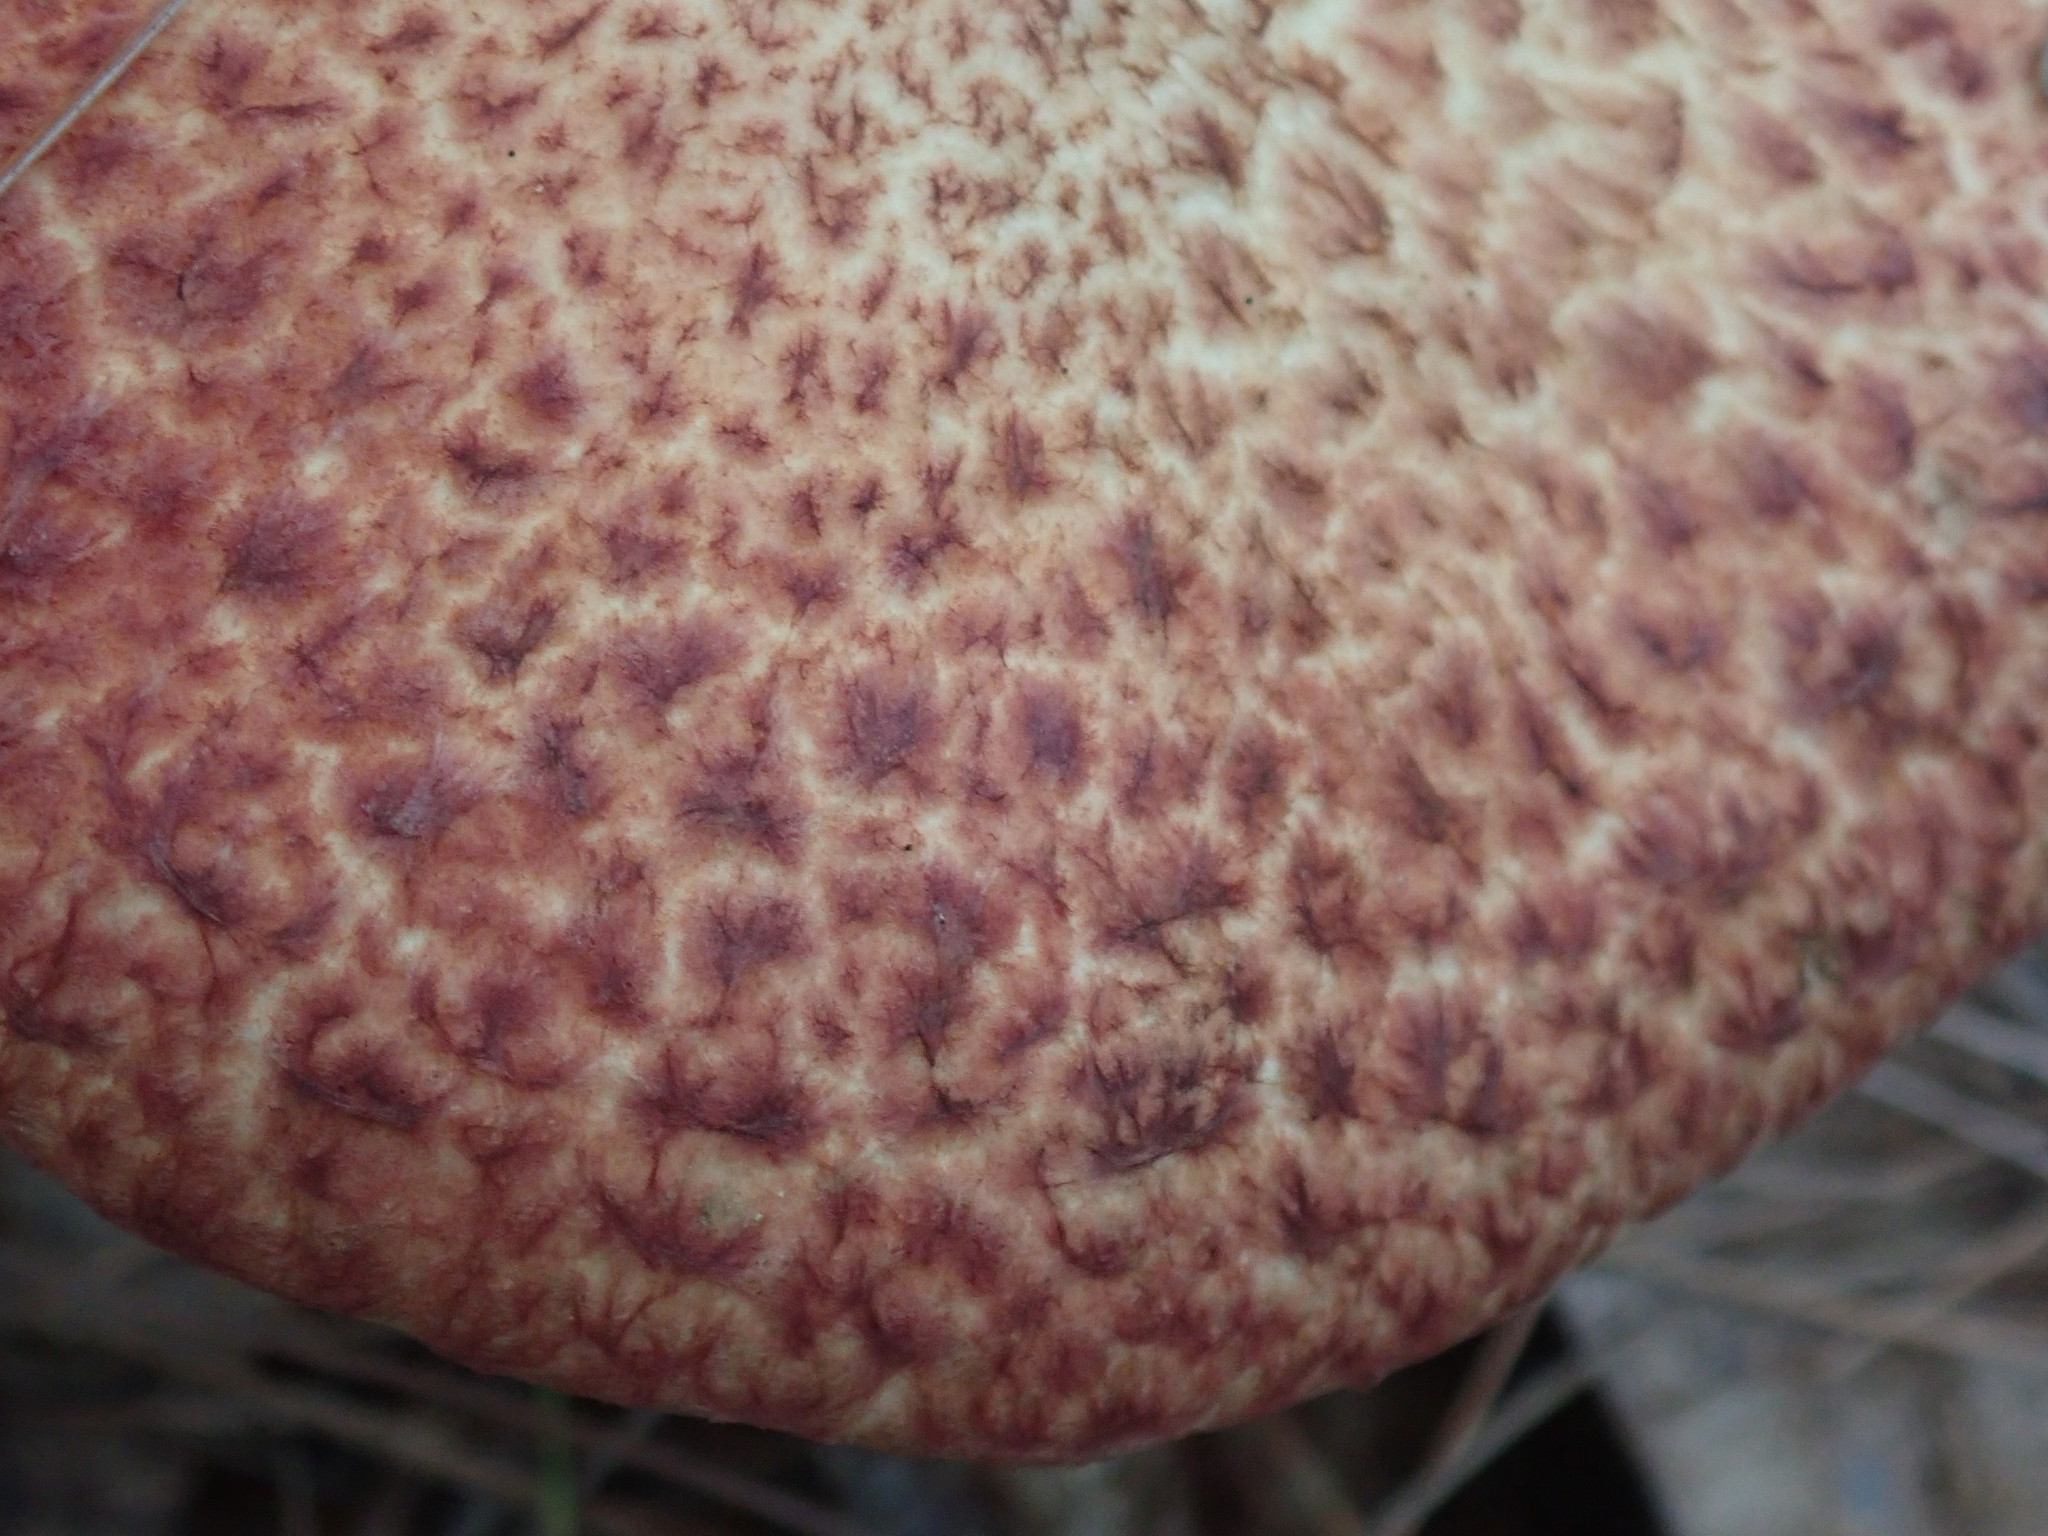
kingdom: Fungi
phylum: Basidiomycota
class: Agaricomycetes
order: Boletales
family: Suillaceae
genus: Suillus
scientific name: Suillus spraguei
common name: Painted suillus
